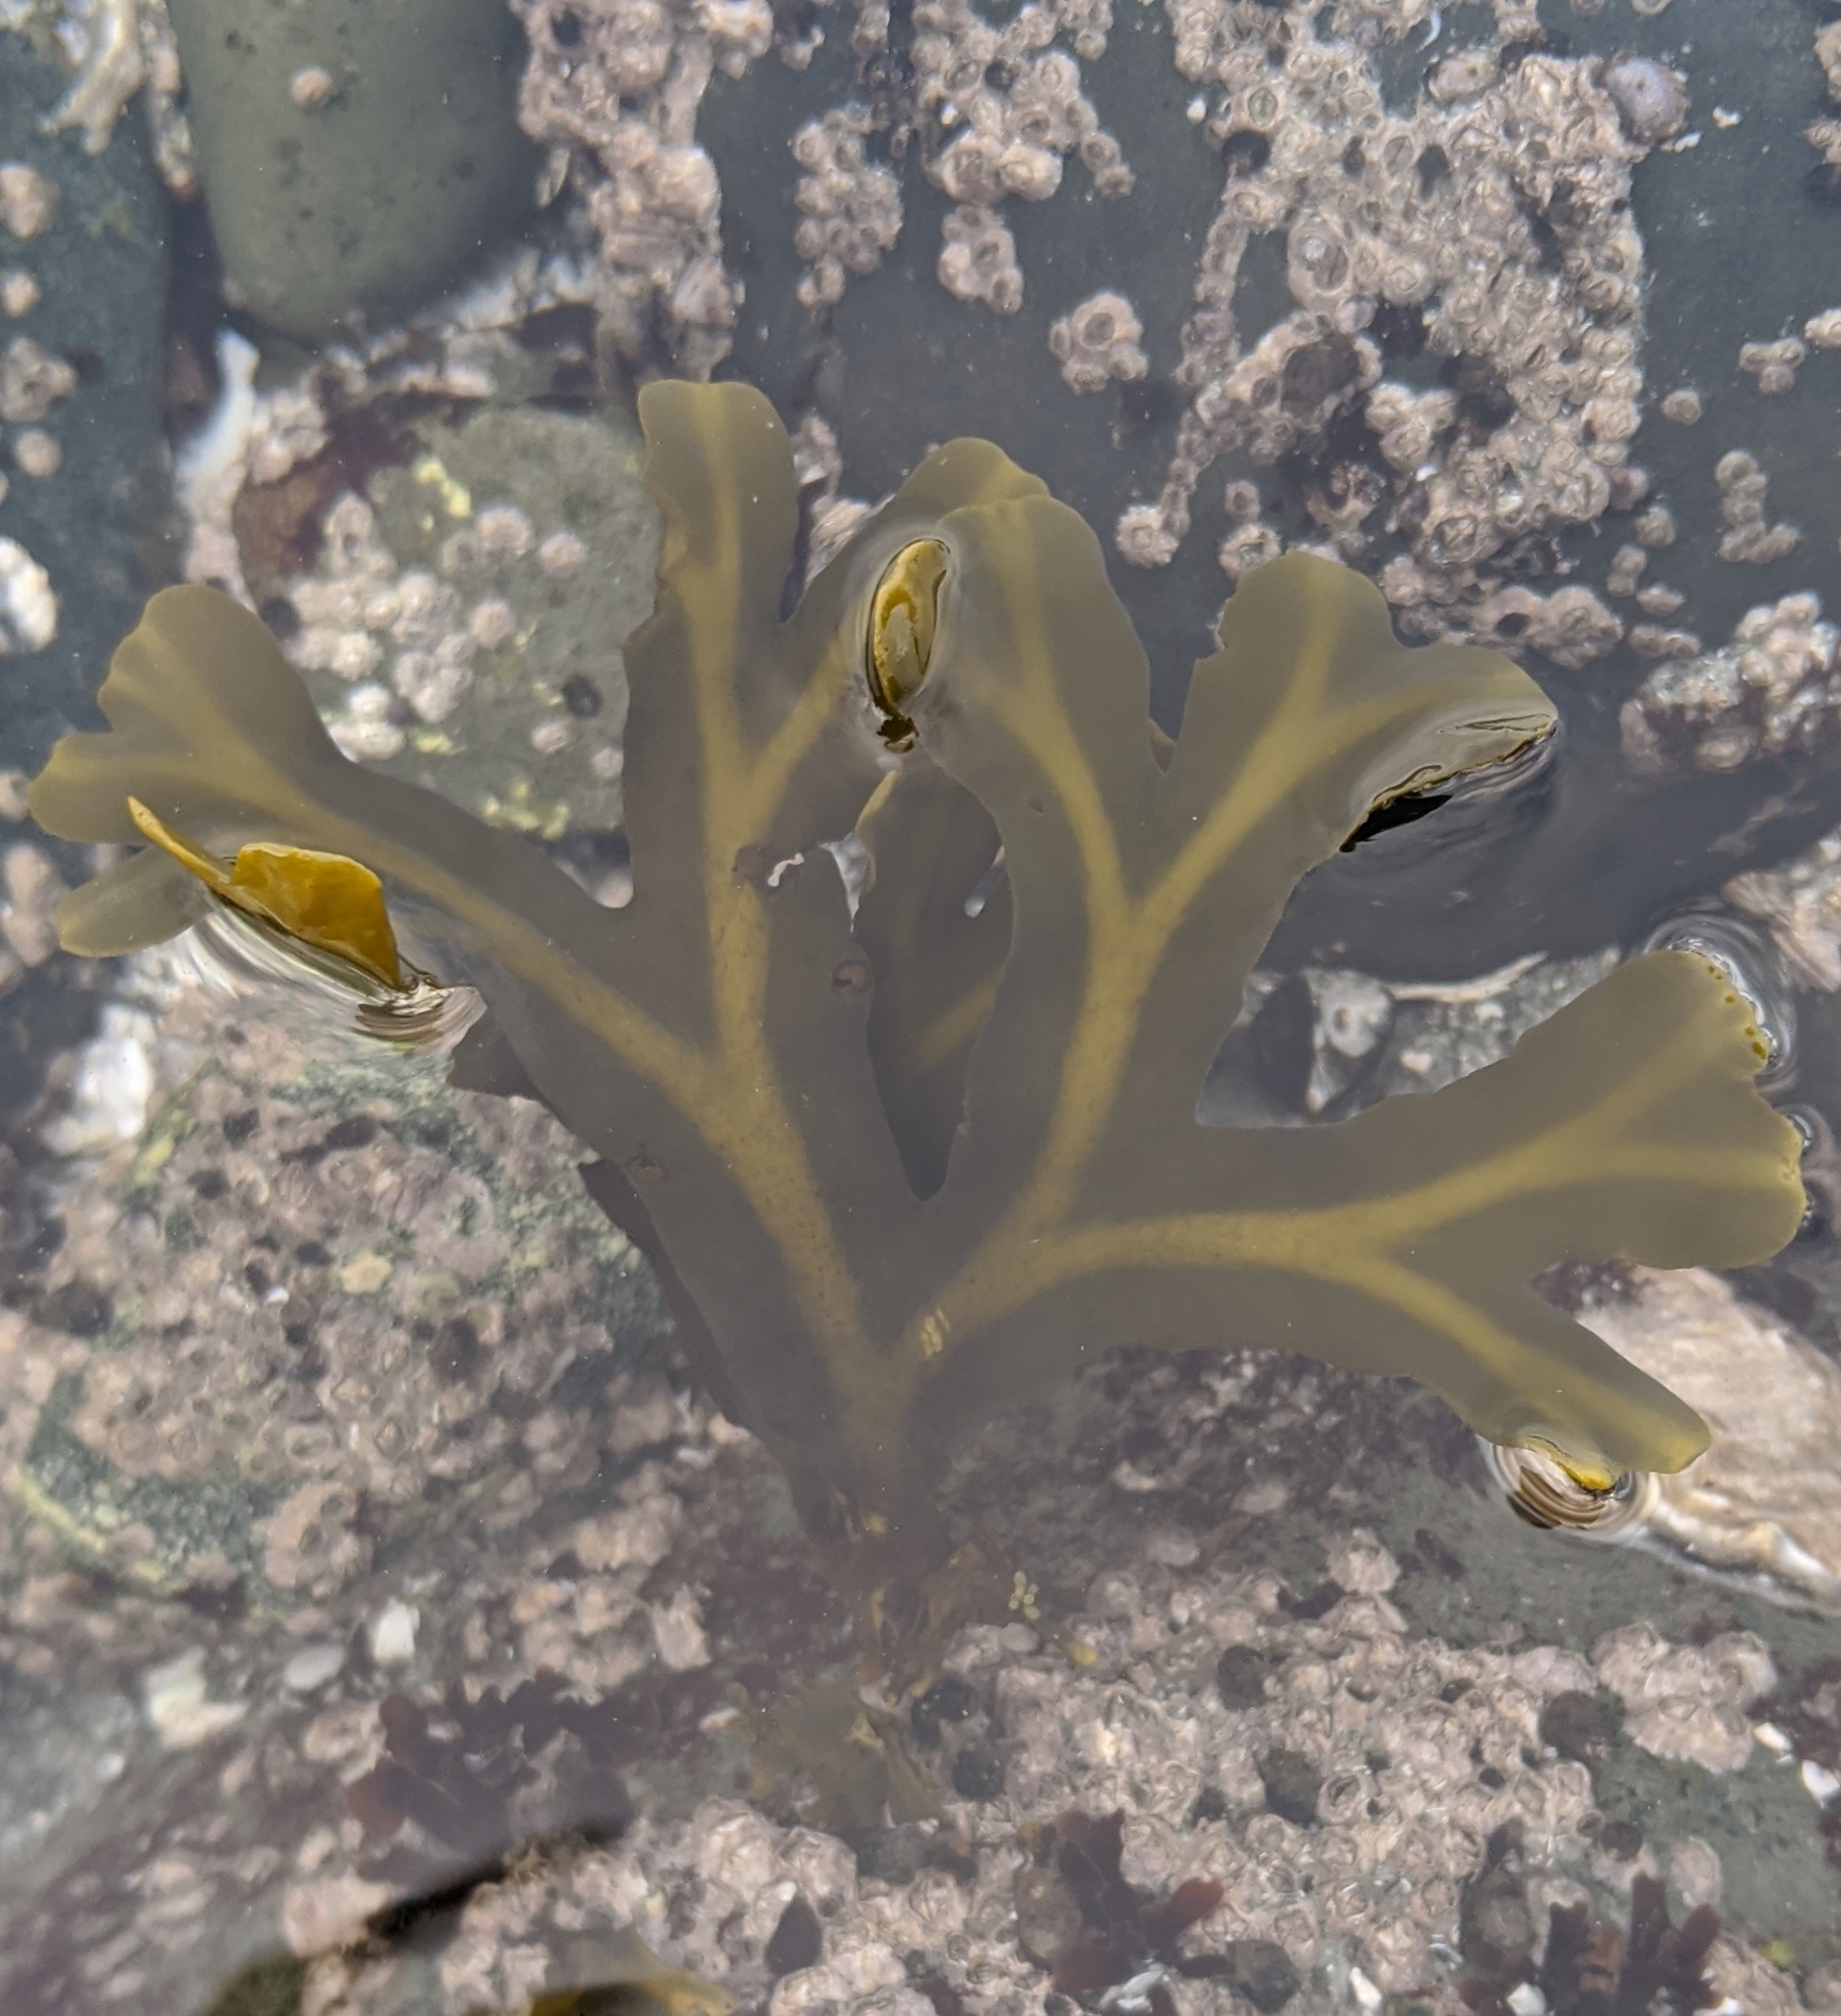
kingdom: Chromista
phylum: Ochrophyta
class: Phaeophyceae
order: Fucales
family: Fucaceae
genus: Fucus
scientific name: Fucus distichus
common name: Rockweed
